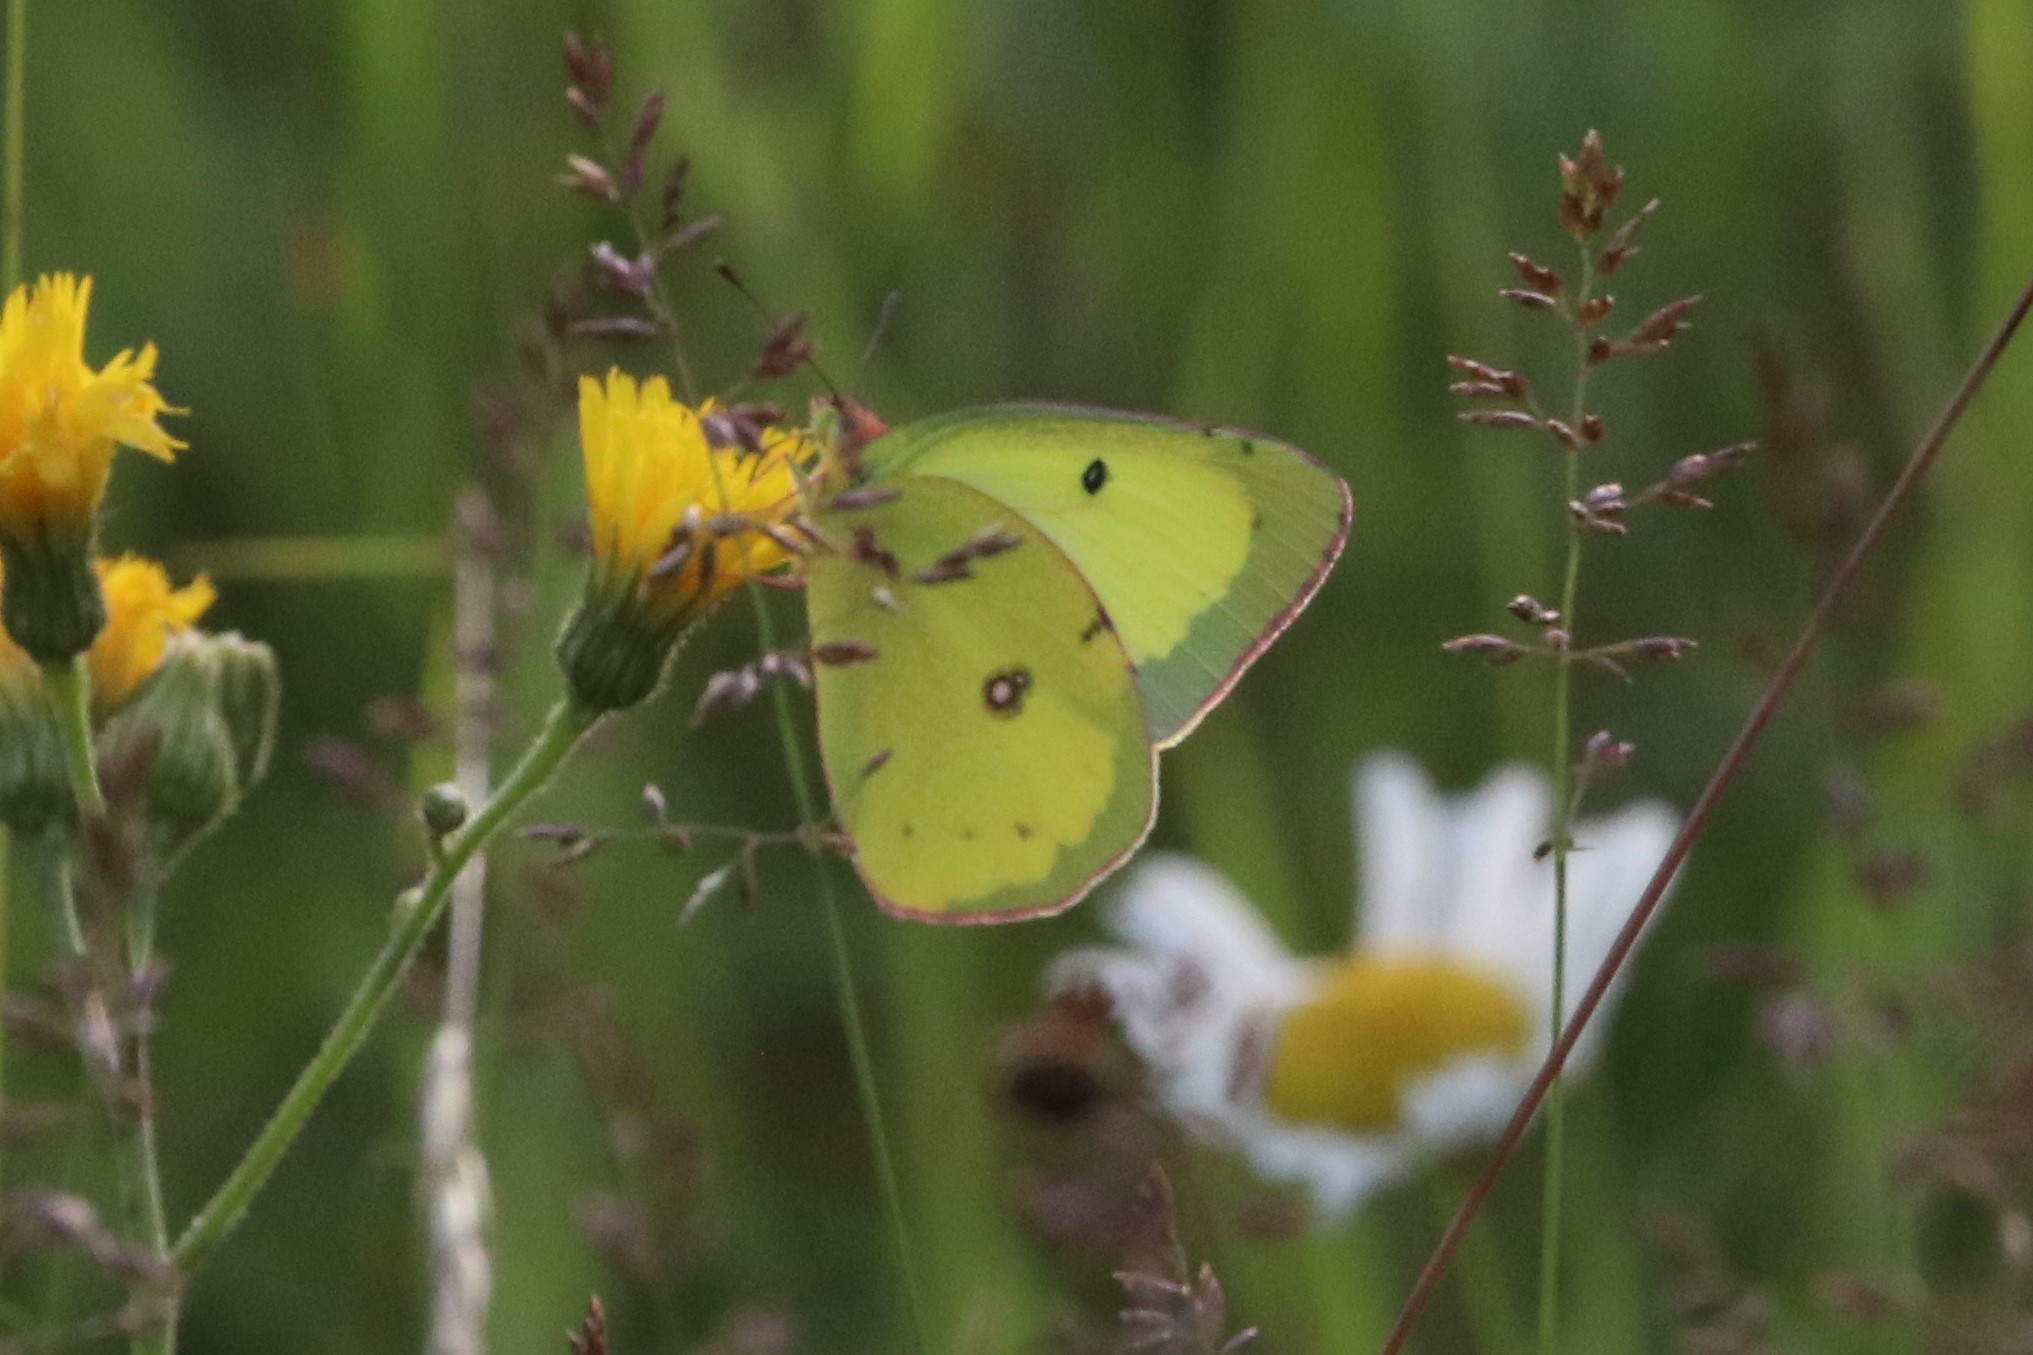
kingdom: Animalia
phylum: Arthropoda
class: Insecta
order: Lepidoptera
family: Pieridae
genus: Colias
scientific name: Colias philodice
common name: Clouded sulphur
